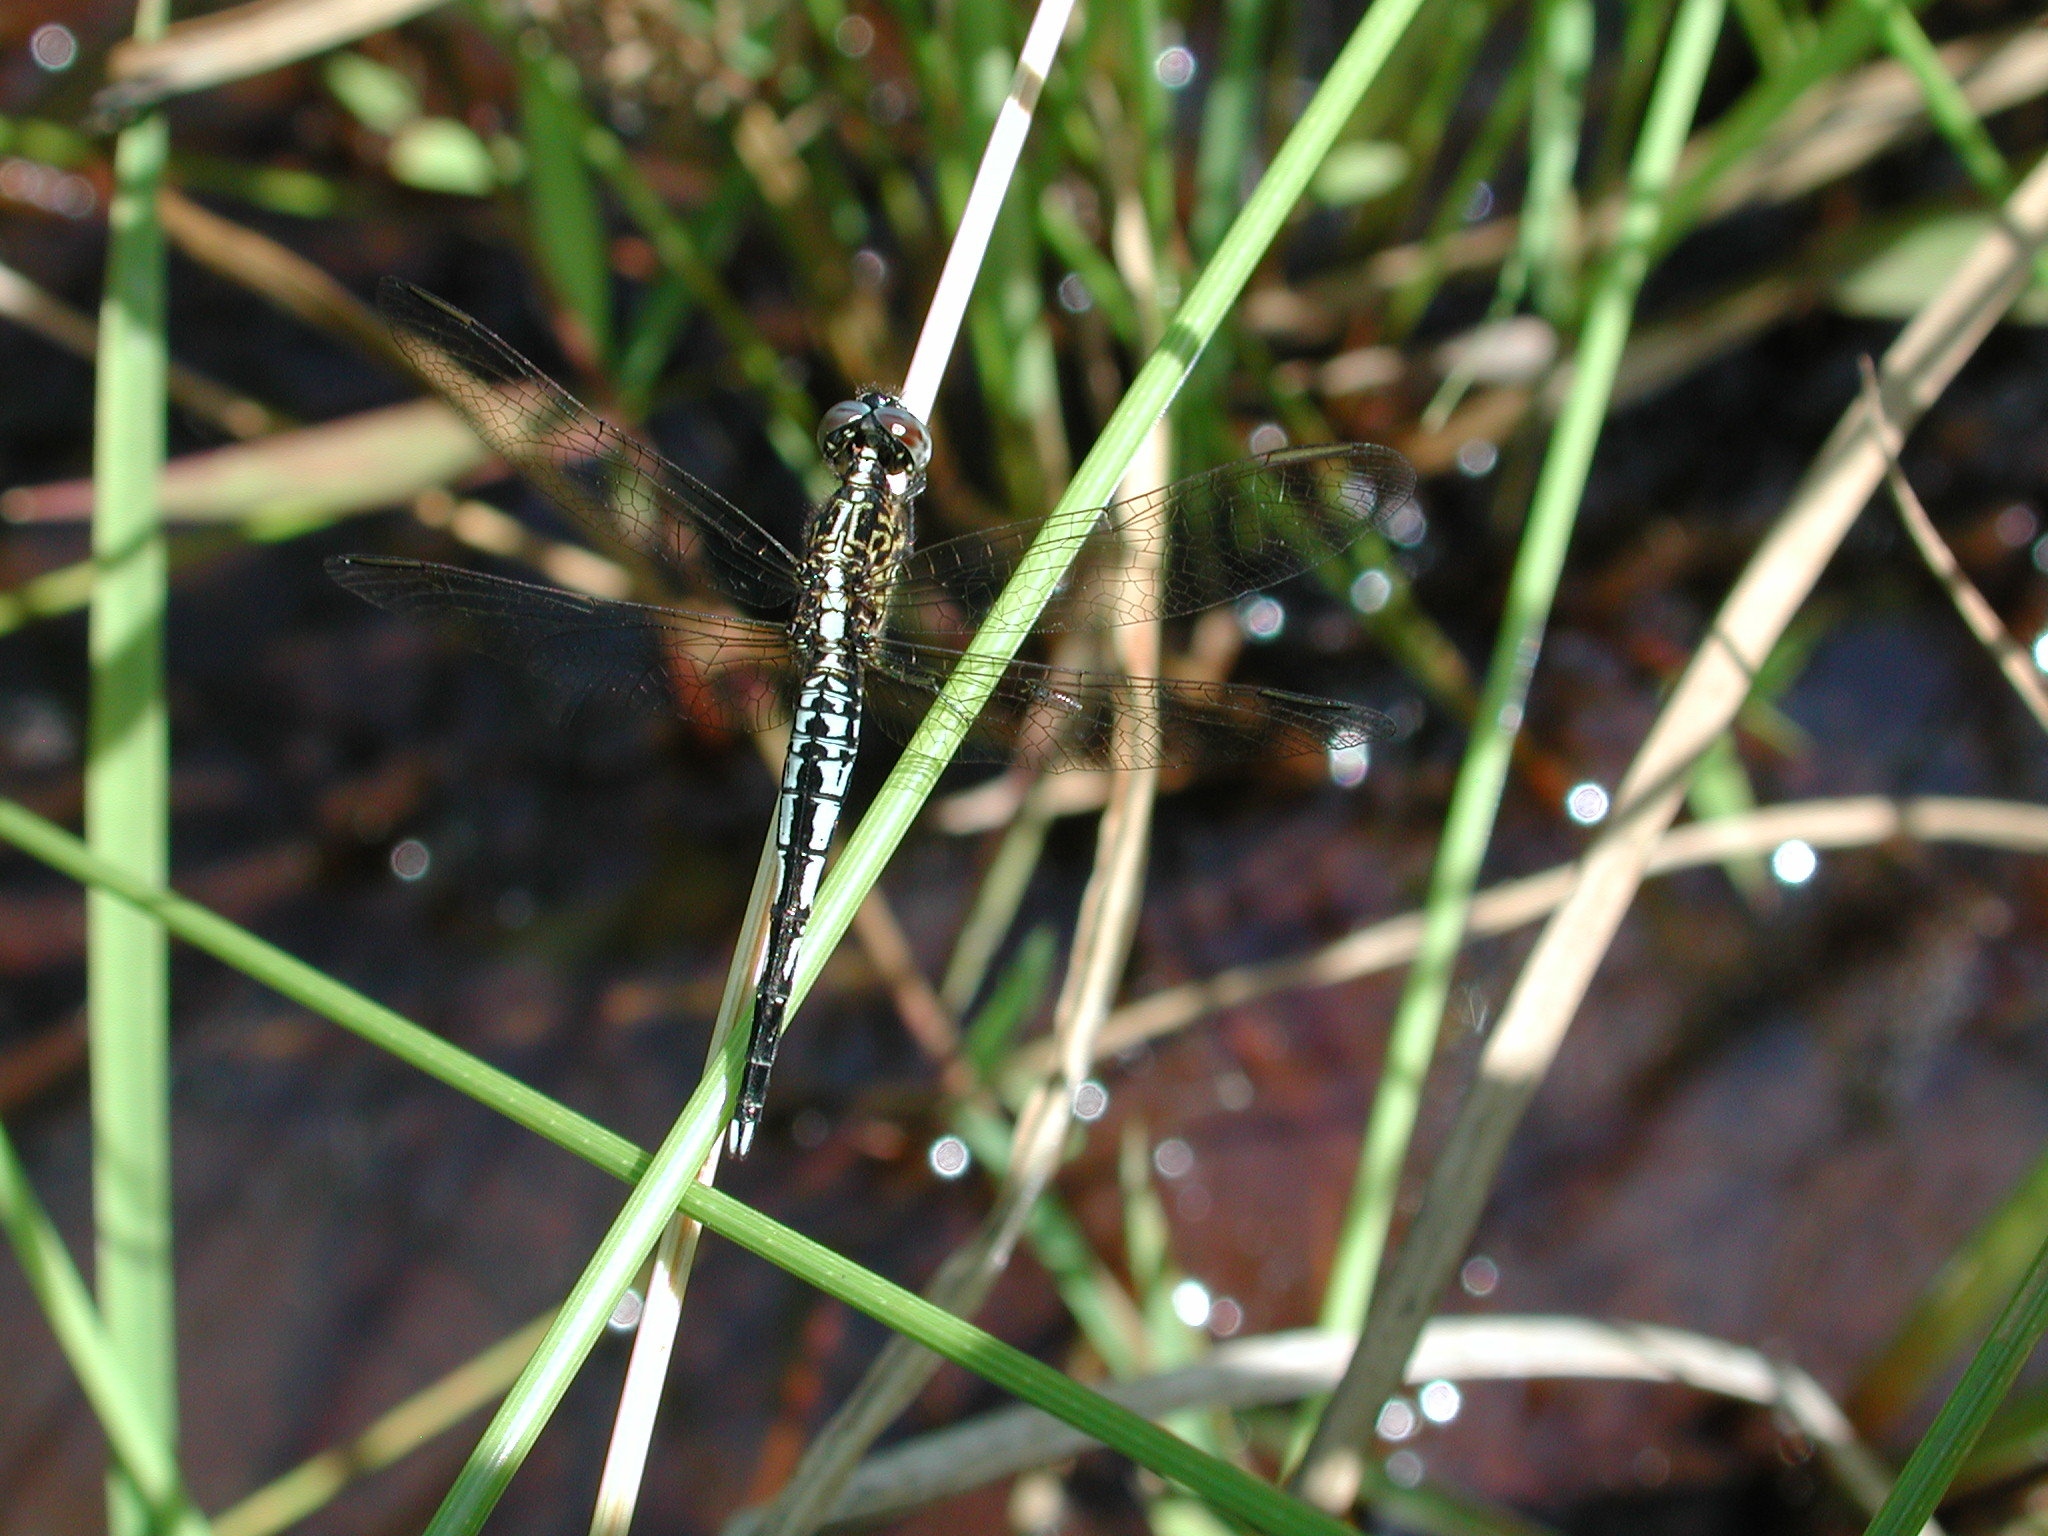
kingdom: Animalia
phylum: Arthropoda
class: Insecta
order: Odonata
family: Libellulidae
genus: Acisoma
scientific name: Acisoma variegatum
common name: Slender pintail
